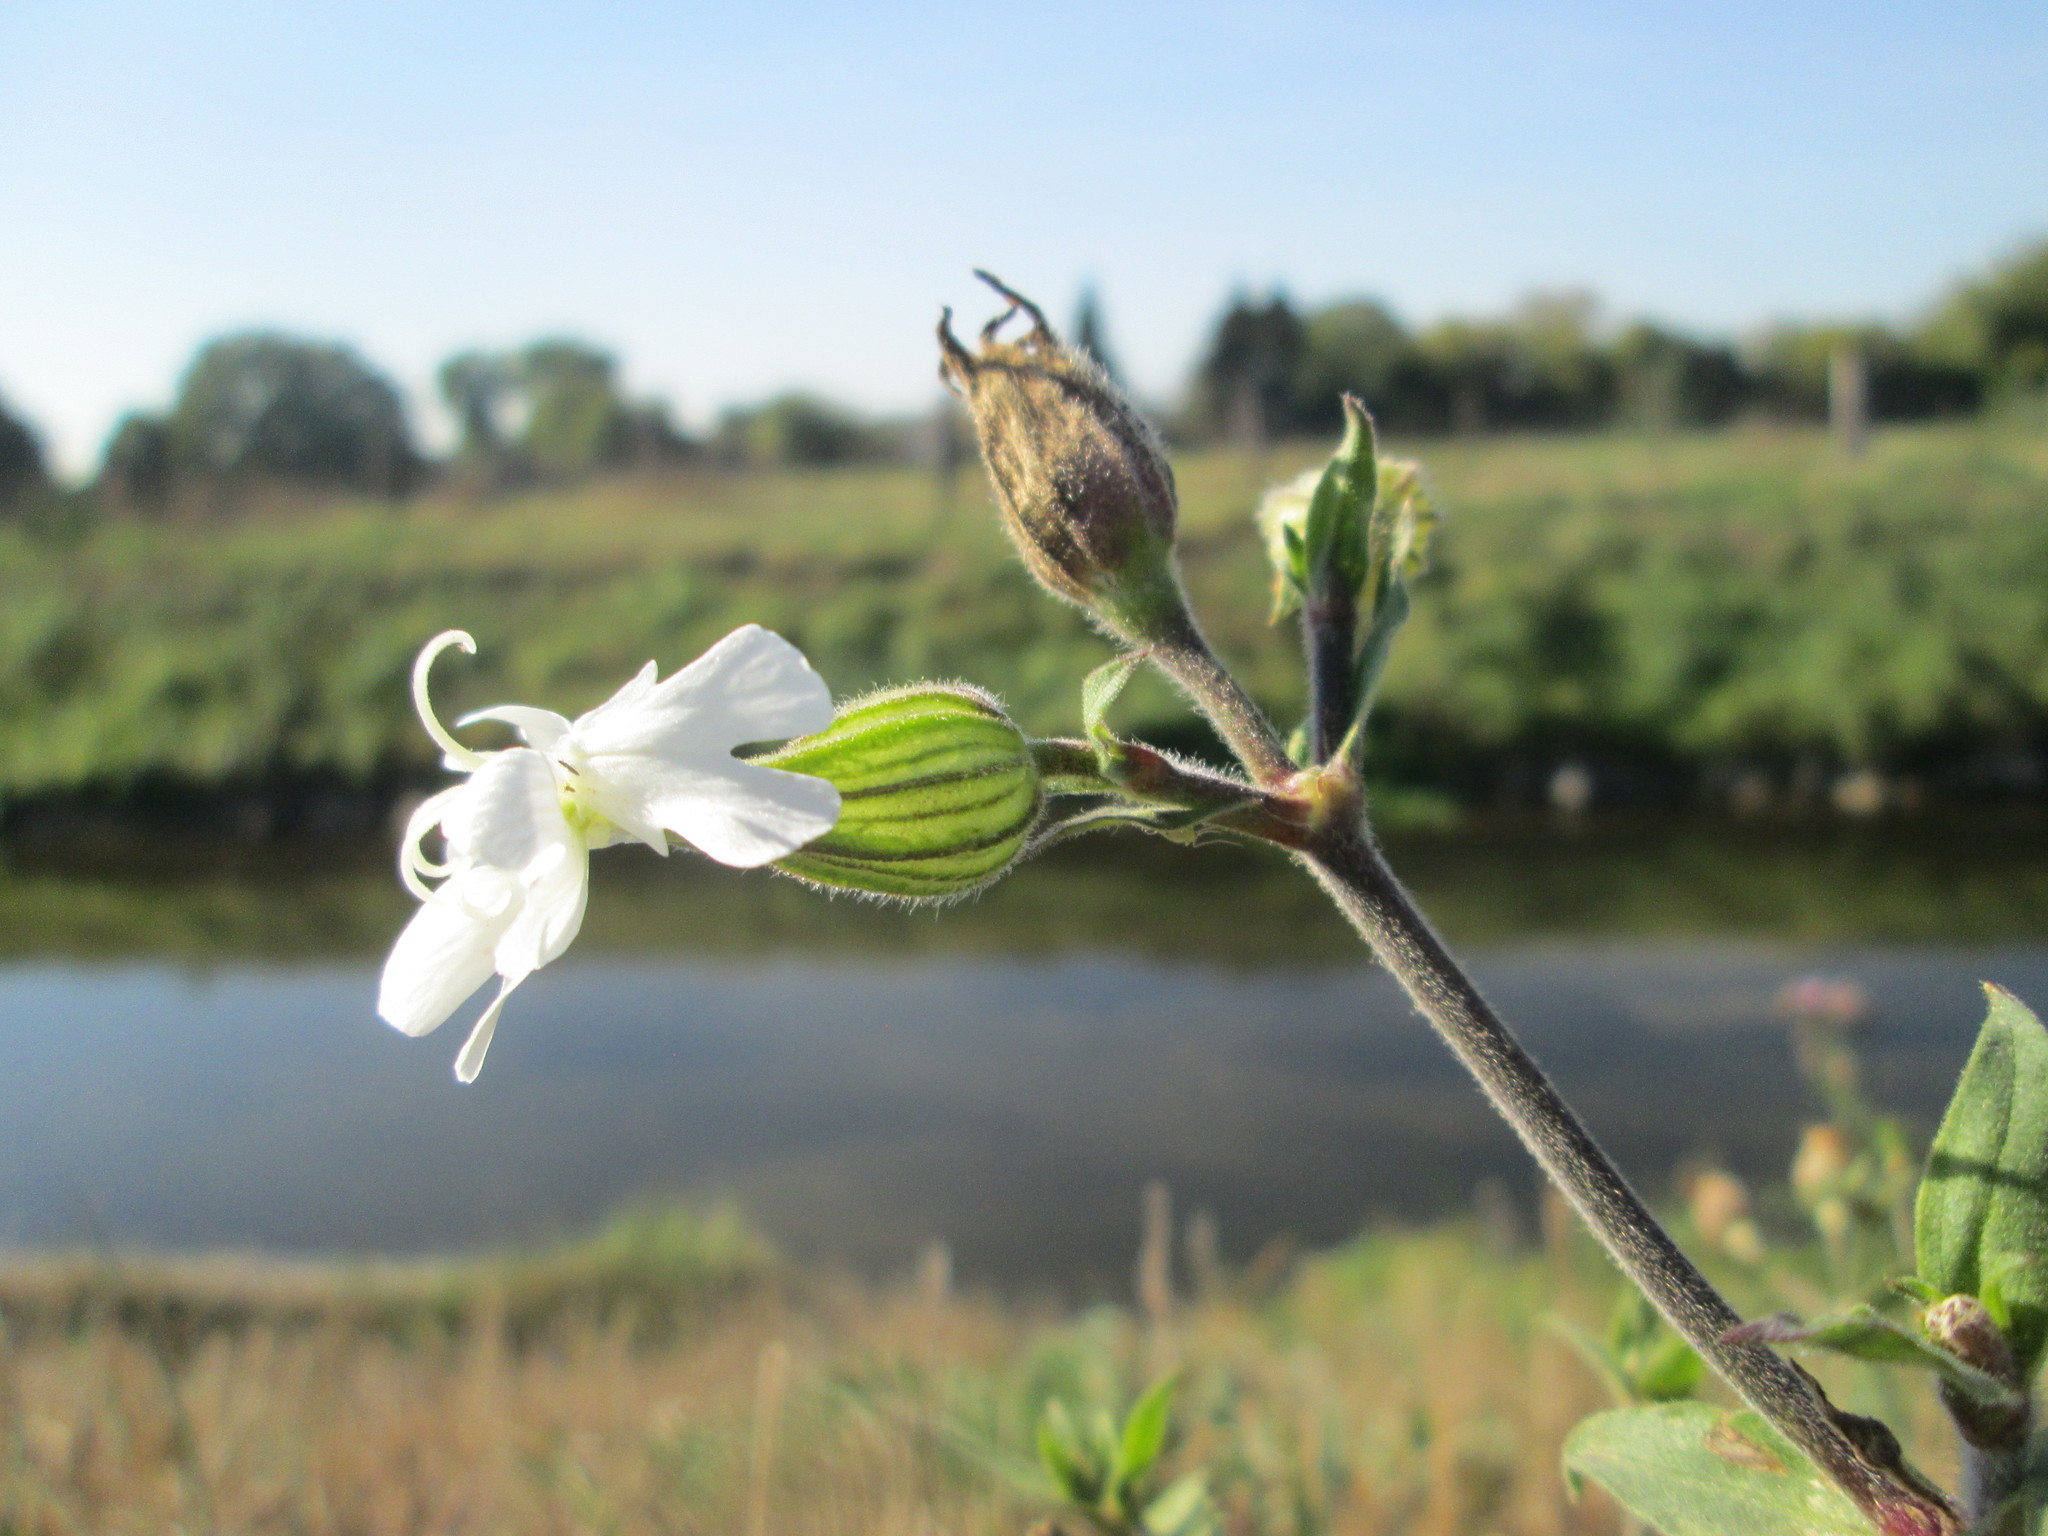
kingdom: Plantae
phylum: Tracheophyta
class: Magnoliopsida
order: Caryophyllales
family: Caryophyllaceae
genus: Silene
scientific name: Silene latifolia
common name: White campion
